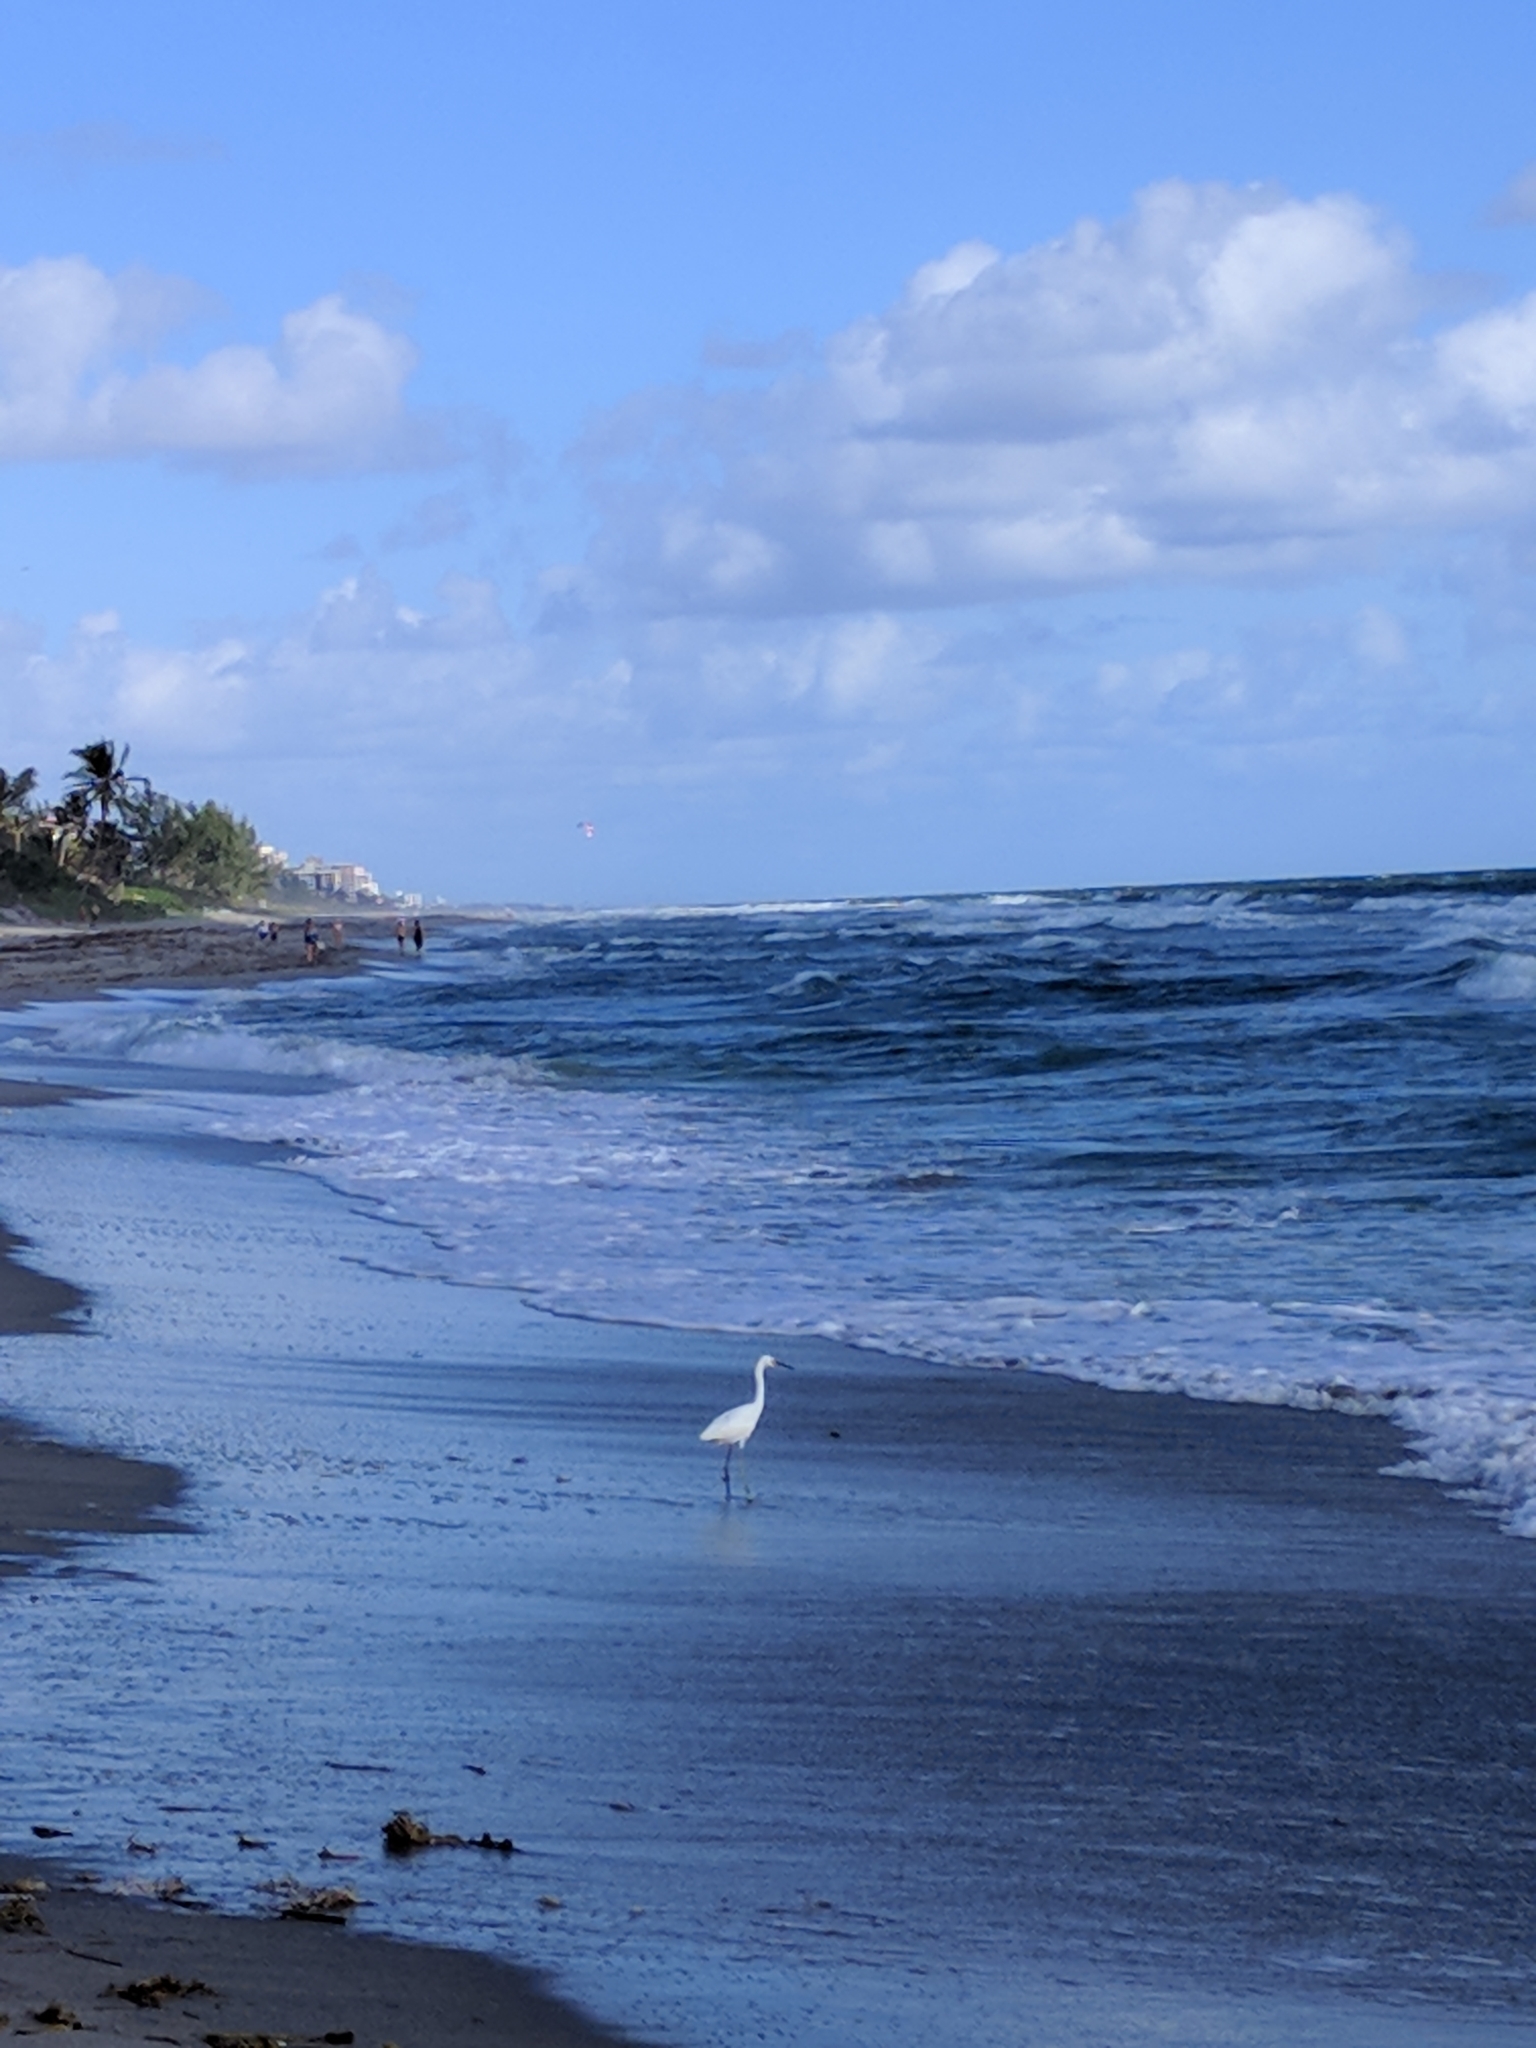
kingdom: Animalia
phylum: Chordata
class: Aves
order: Pelecaniformes
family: Ardeidae
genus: Egretta
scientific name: Egretta thula
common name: Snowy egret
